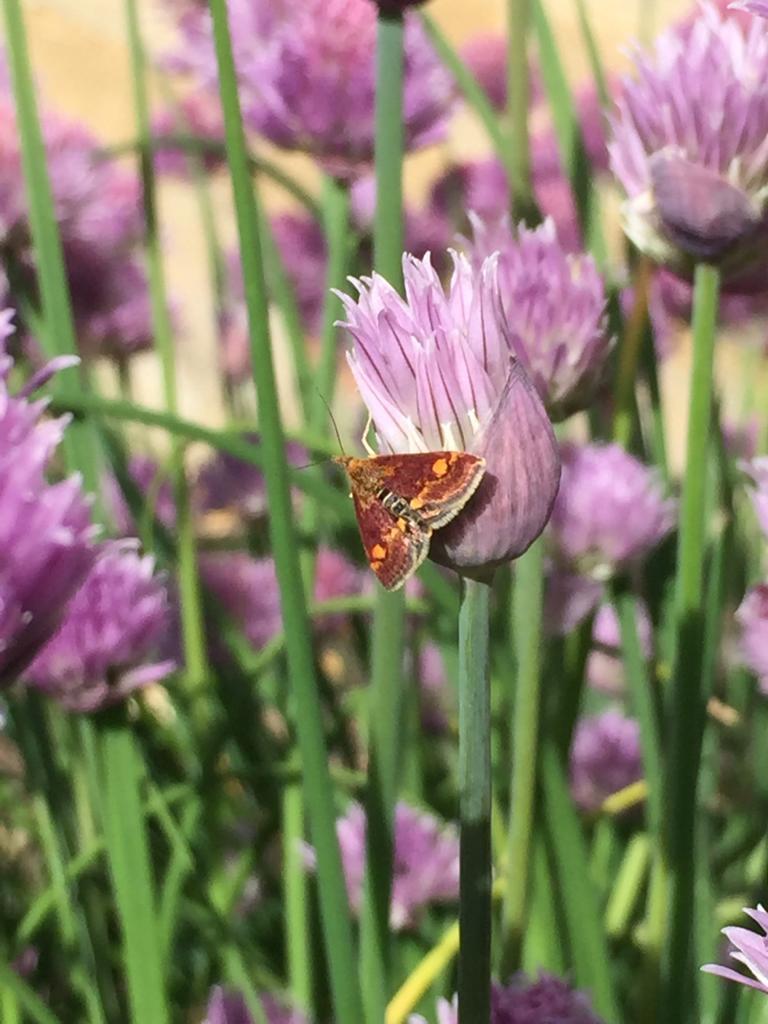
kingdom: Animalia
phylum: Arthropoda
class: Insecta
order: Lepidoptera
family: Crambidae
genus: Pyrausta
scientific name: Pyrausta aurata
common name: Small purple & gold
